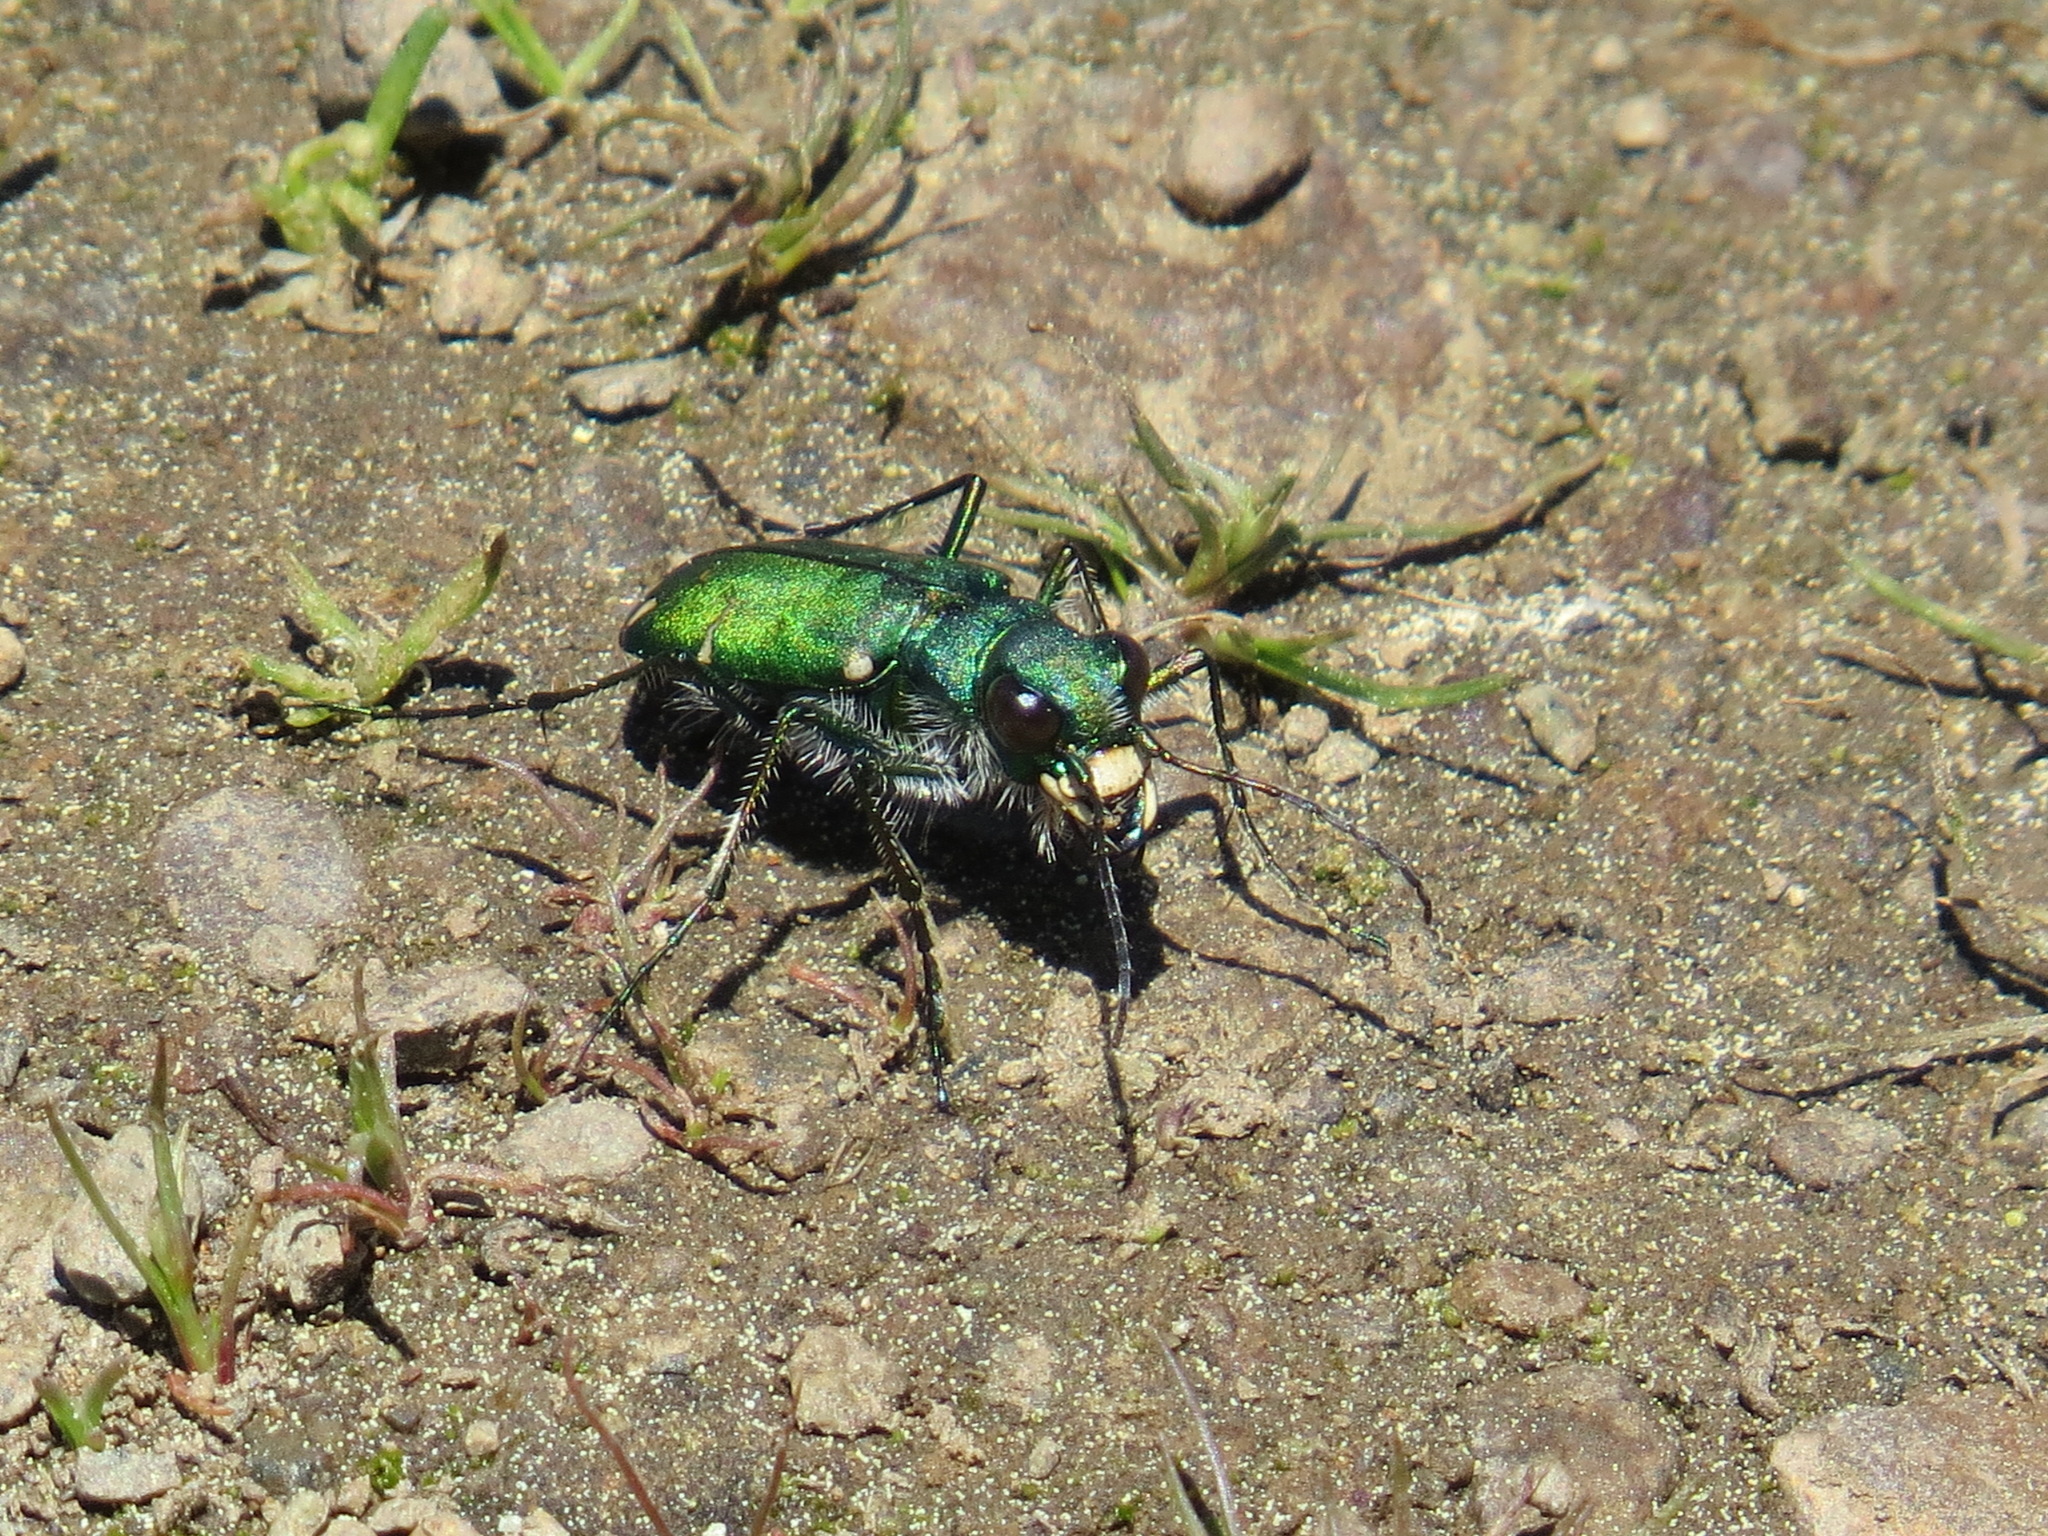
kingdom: Animalia
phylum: Arthropoda
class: Insecta
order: Coleoptera
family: Carabidae
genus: Cicindela
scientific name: Cicindela tranquebarica
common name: Oblique-lined tiger beetle
